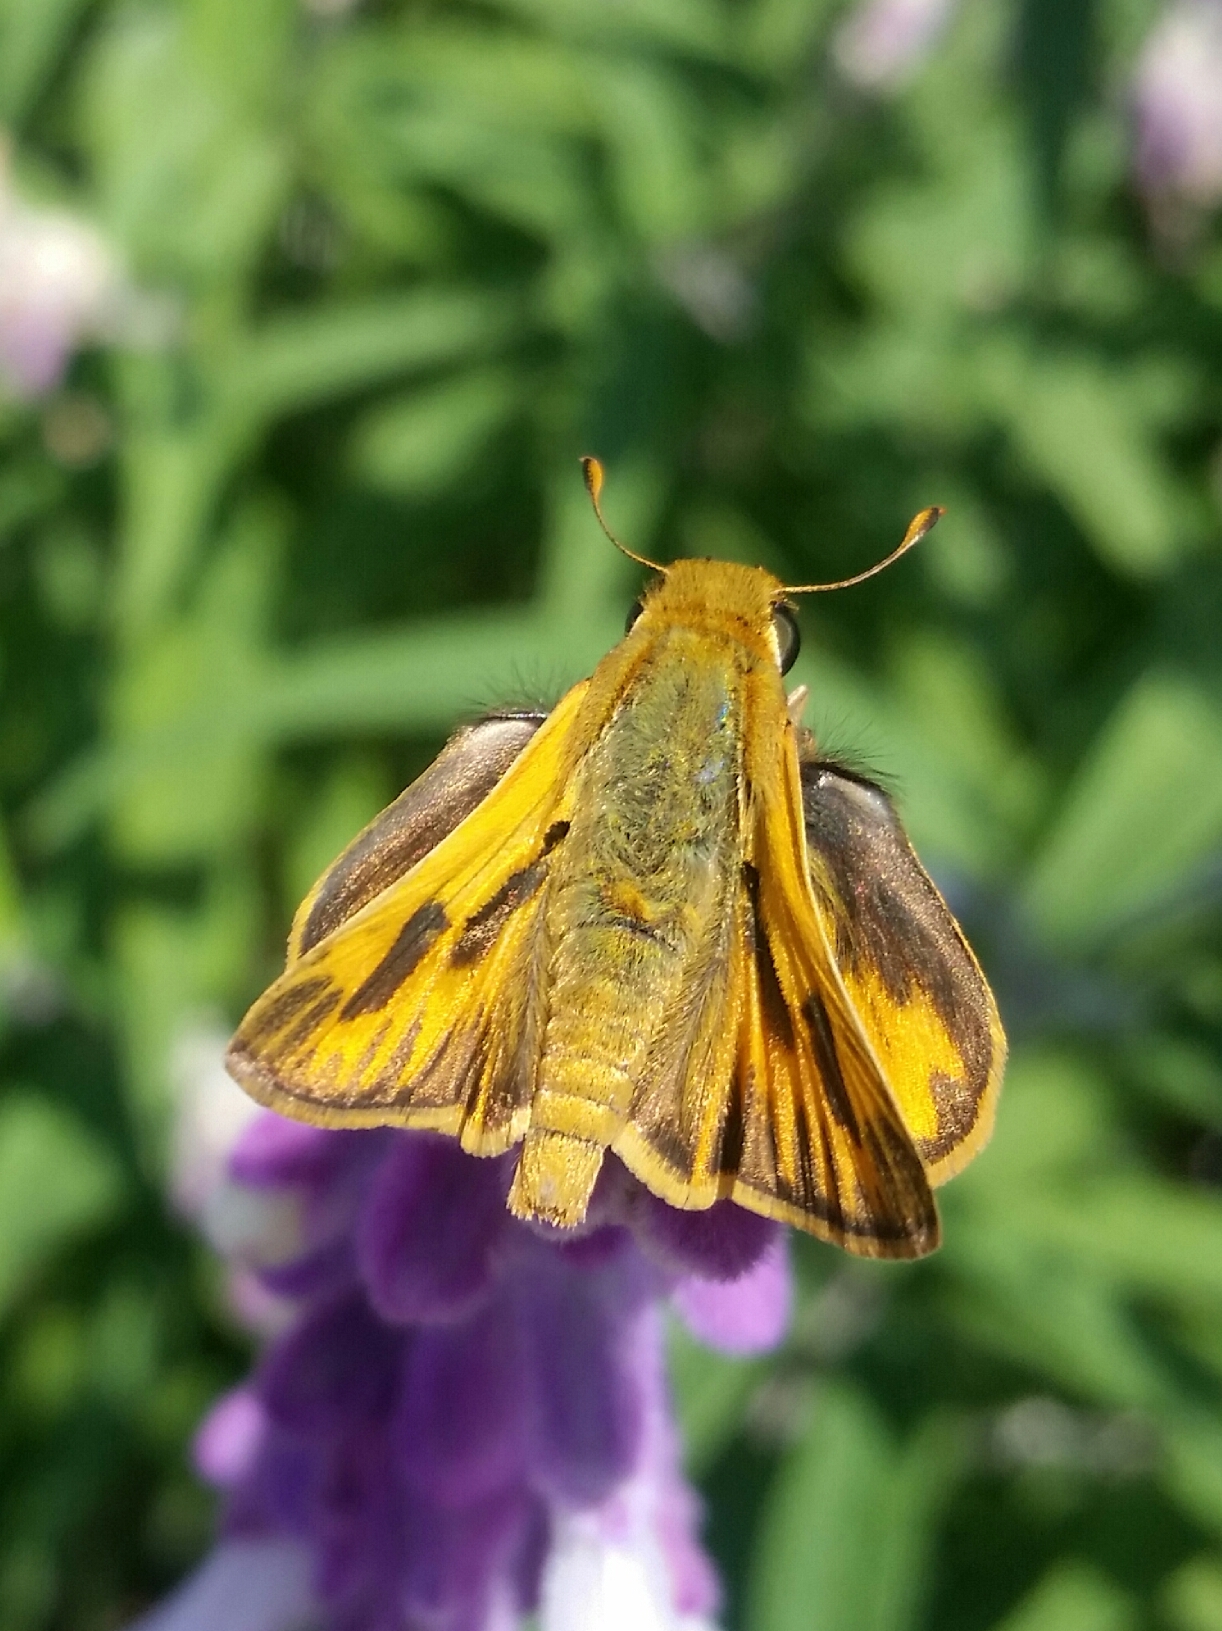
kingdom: Animalia
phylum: Arthropoda
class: Insecta
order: Lepidoptera
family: Hesperiidae
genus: Hylephila
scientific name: Hylephila phyleus
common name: Fiery skipper
